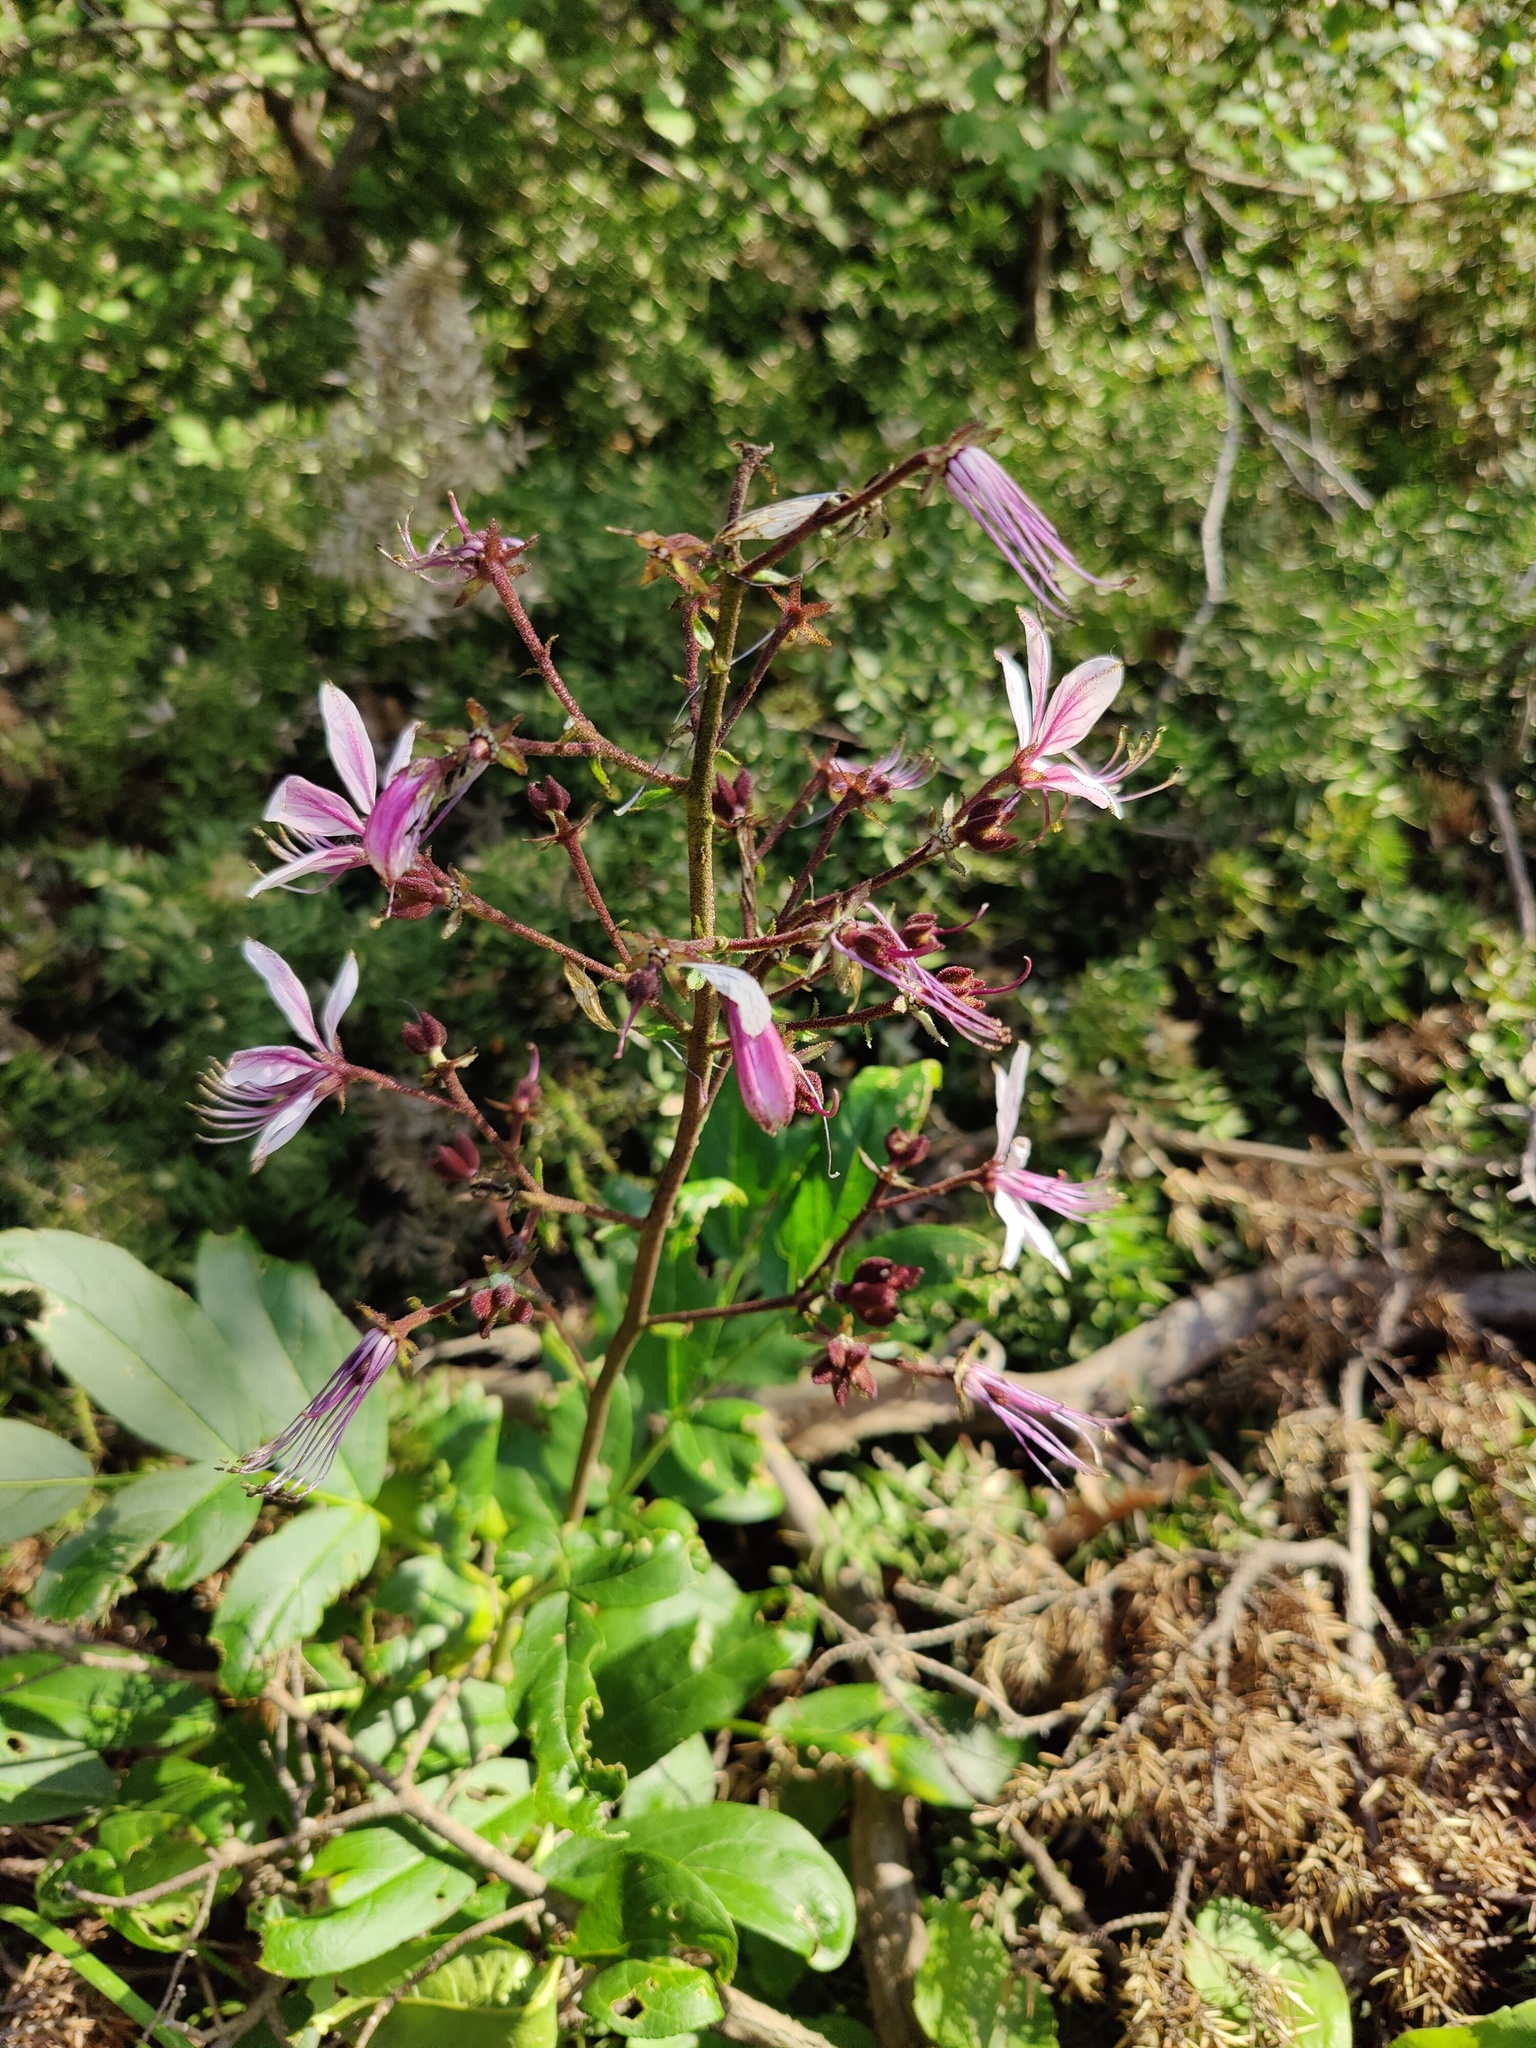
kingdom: Plantae
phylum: Tracheophyta
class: Magnoliopsida
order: Sapindales
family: Rutaceae
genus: Dictamnus
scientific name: Dictamnus albus
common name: Gasplant
